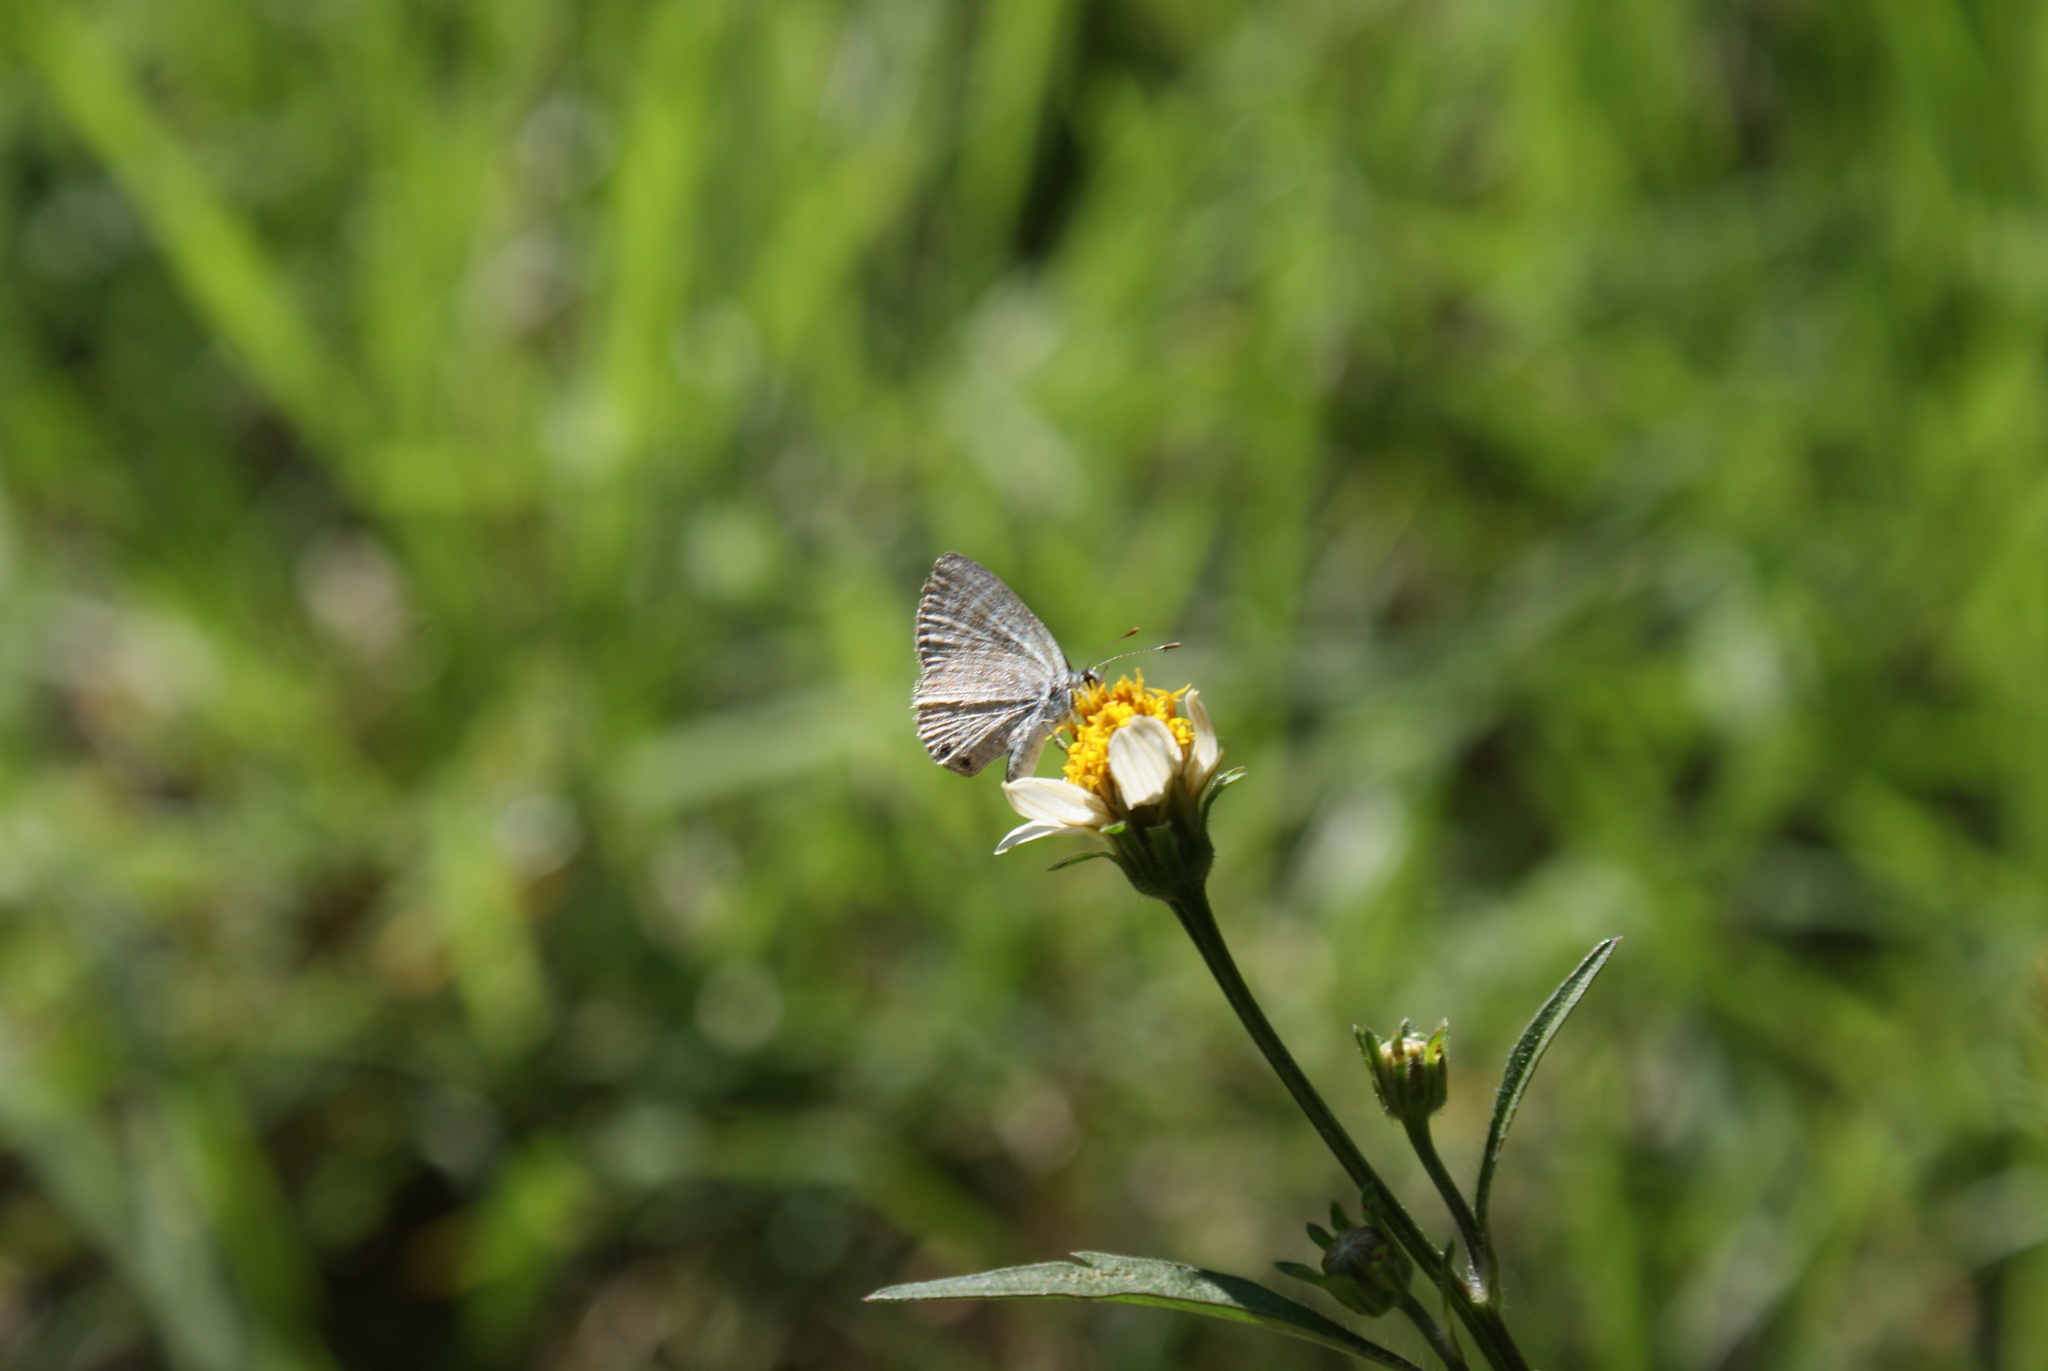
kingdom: Animalia
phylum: Arthropoda
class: Insecta
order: Lepidoptera
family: Lycaenidae
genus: Leptotes
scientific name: Leptotes marina
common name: Marine blue
